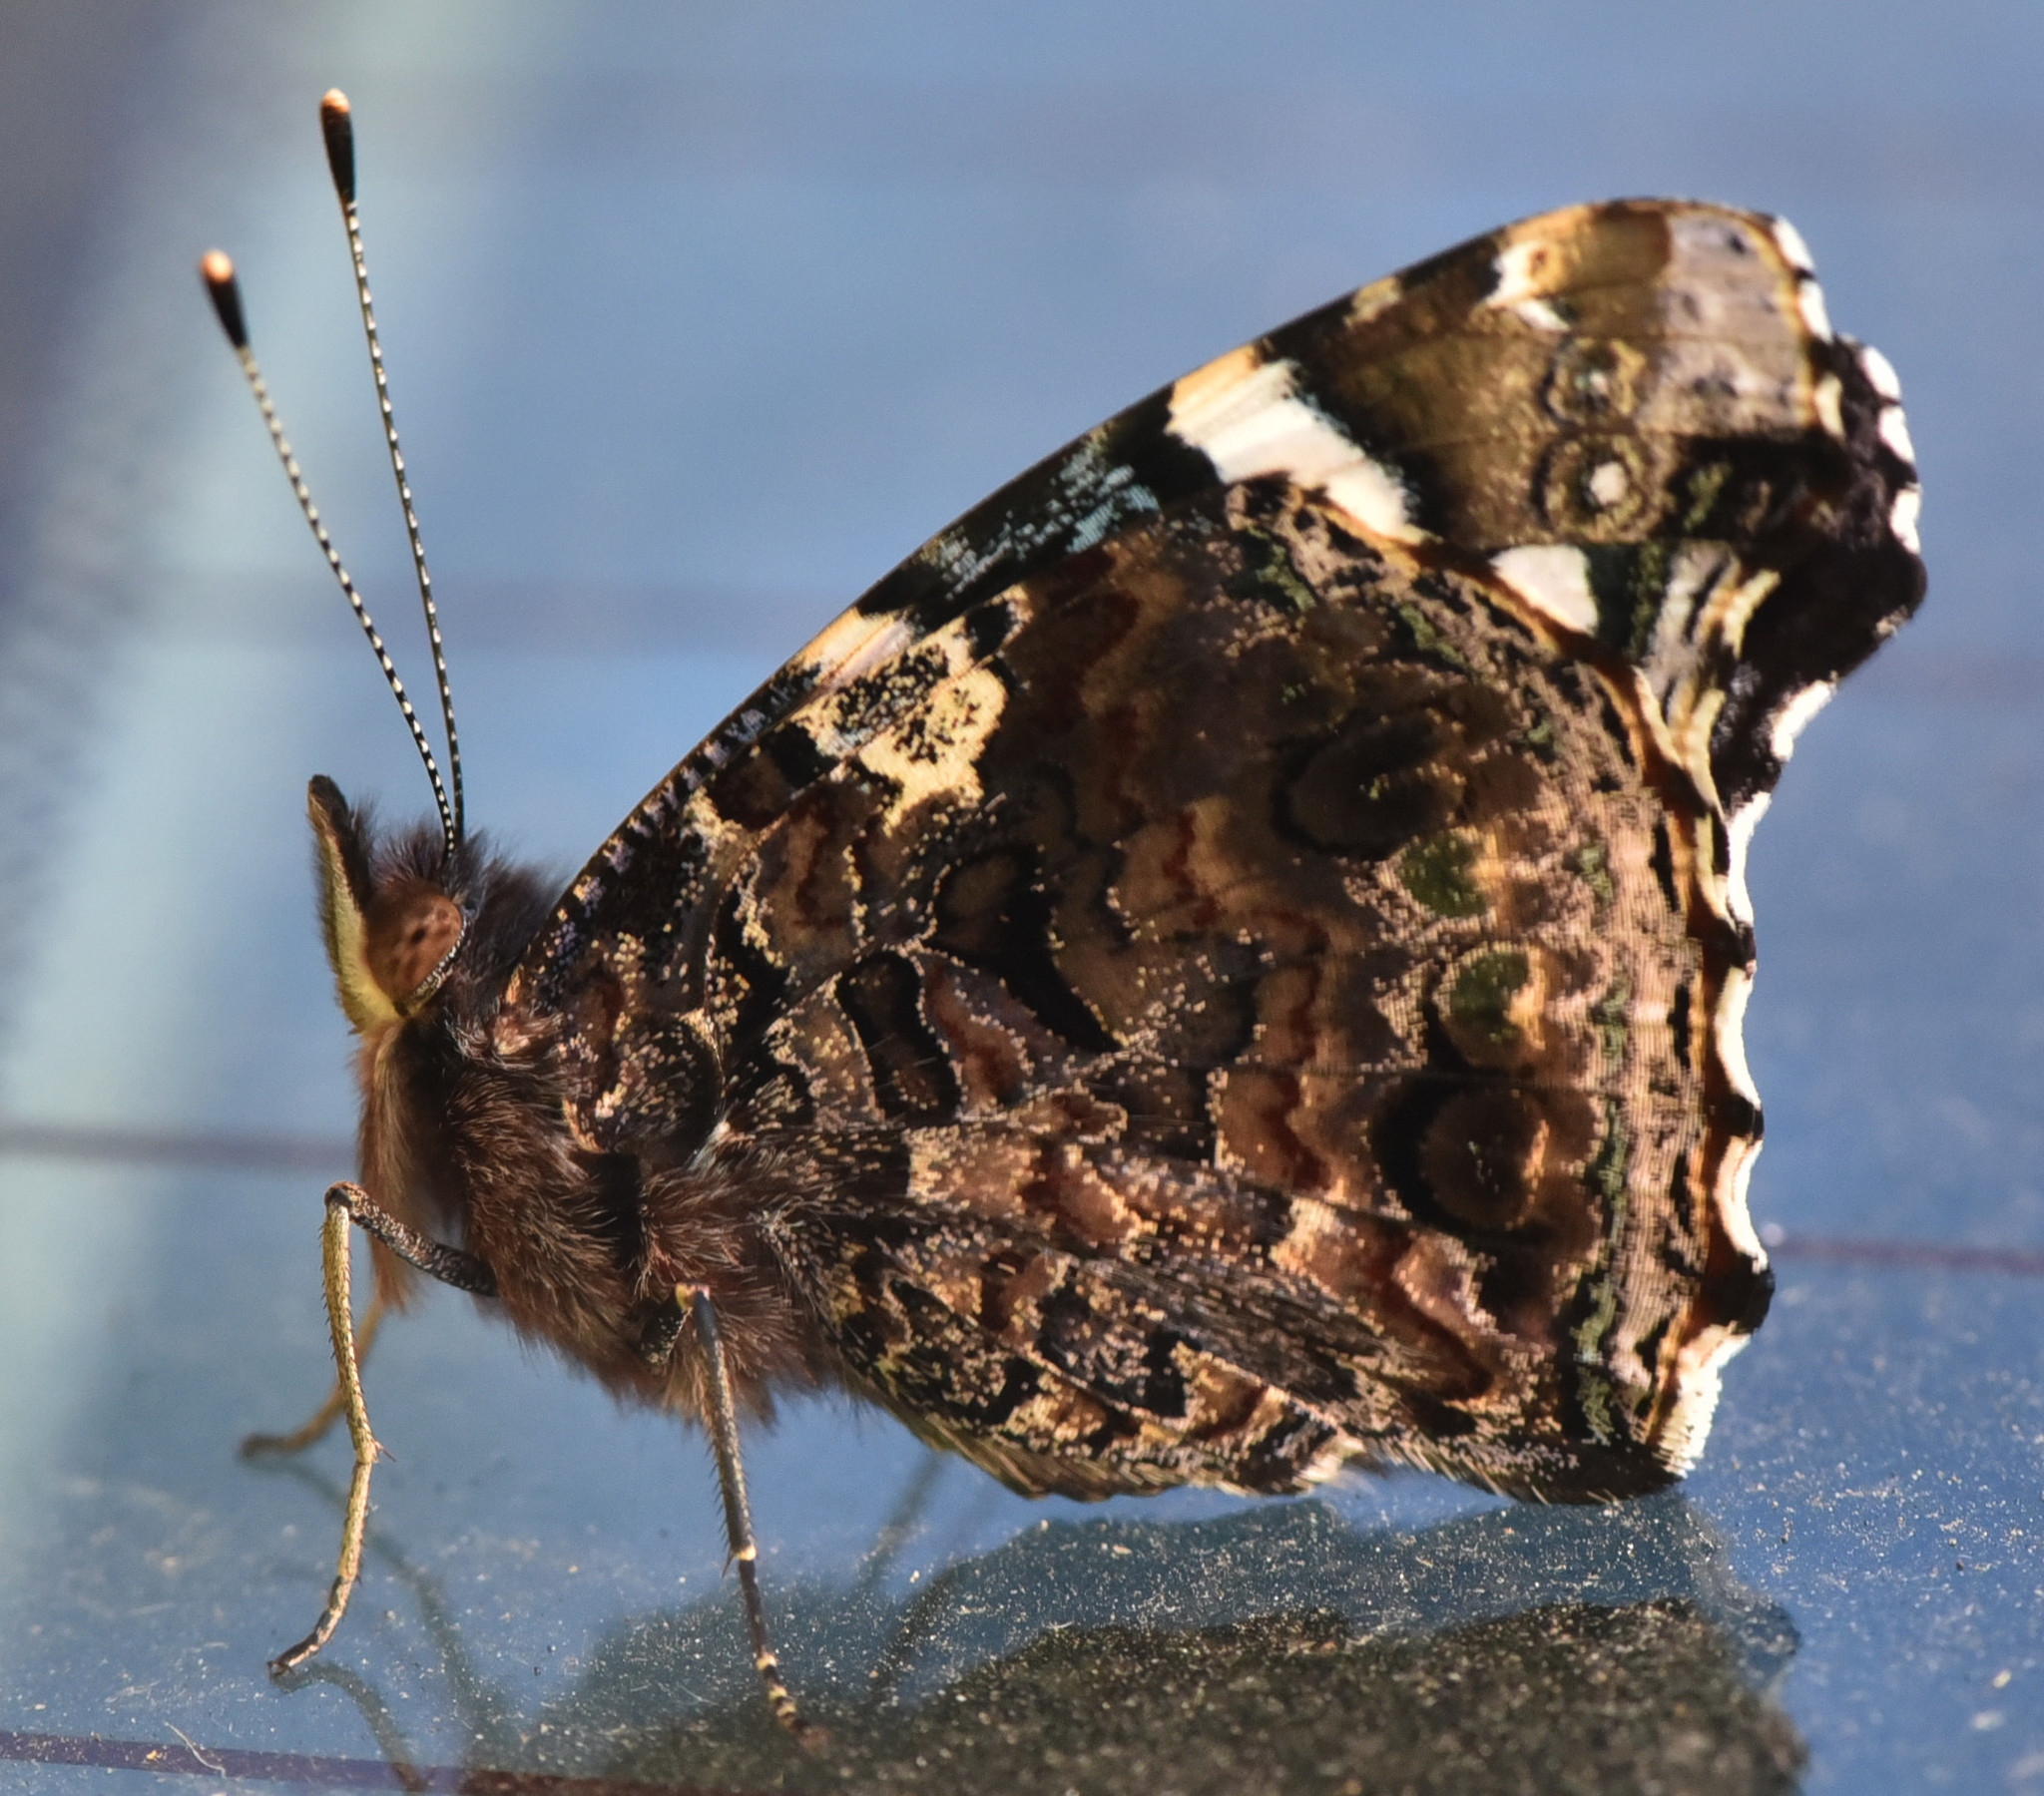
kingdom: Animalia
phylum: Arthropoda
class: Insecta
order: Lepidoptera
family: Nymphalidae
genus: Vanessa
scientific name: Vanessa atalanta
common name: Red admiral
